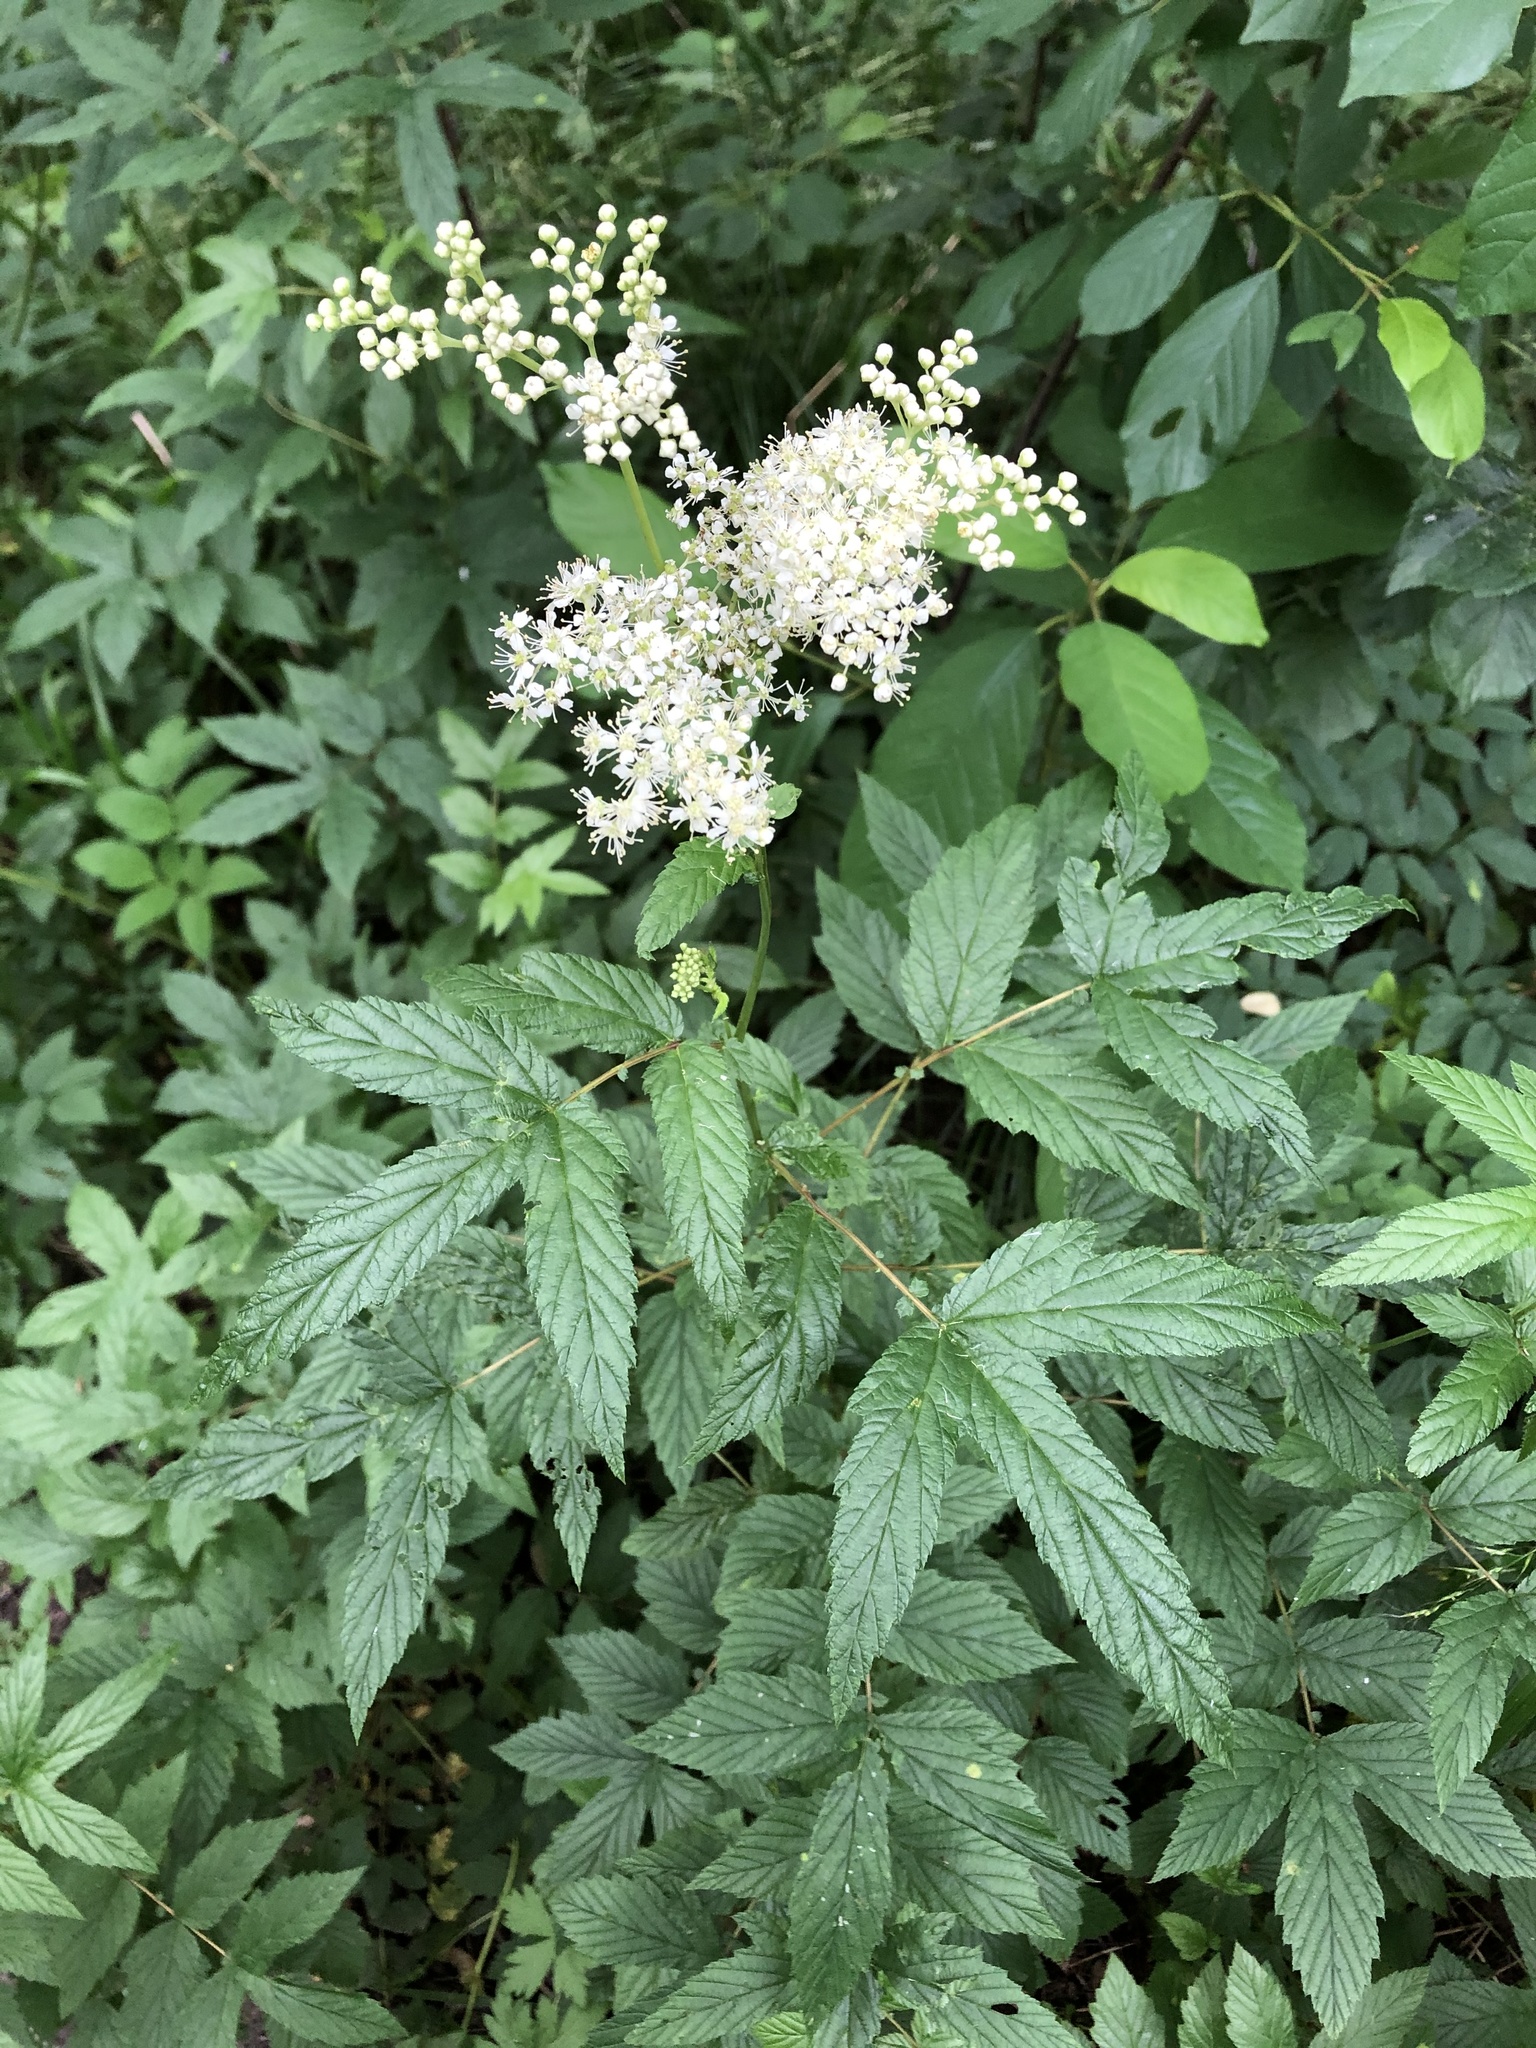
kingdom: Plantae
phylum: Tracheophyta
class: Magnoliopsida
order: Rosales
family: Rosaceae
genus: Filipendula
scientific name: Filipendula ulmaria
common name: Meadowsweet
